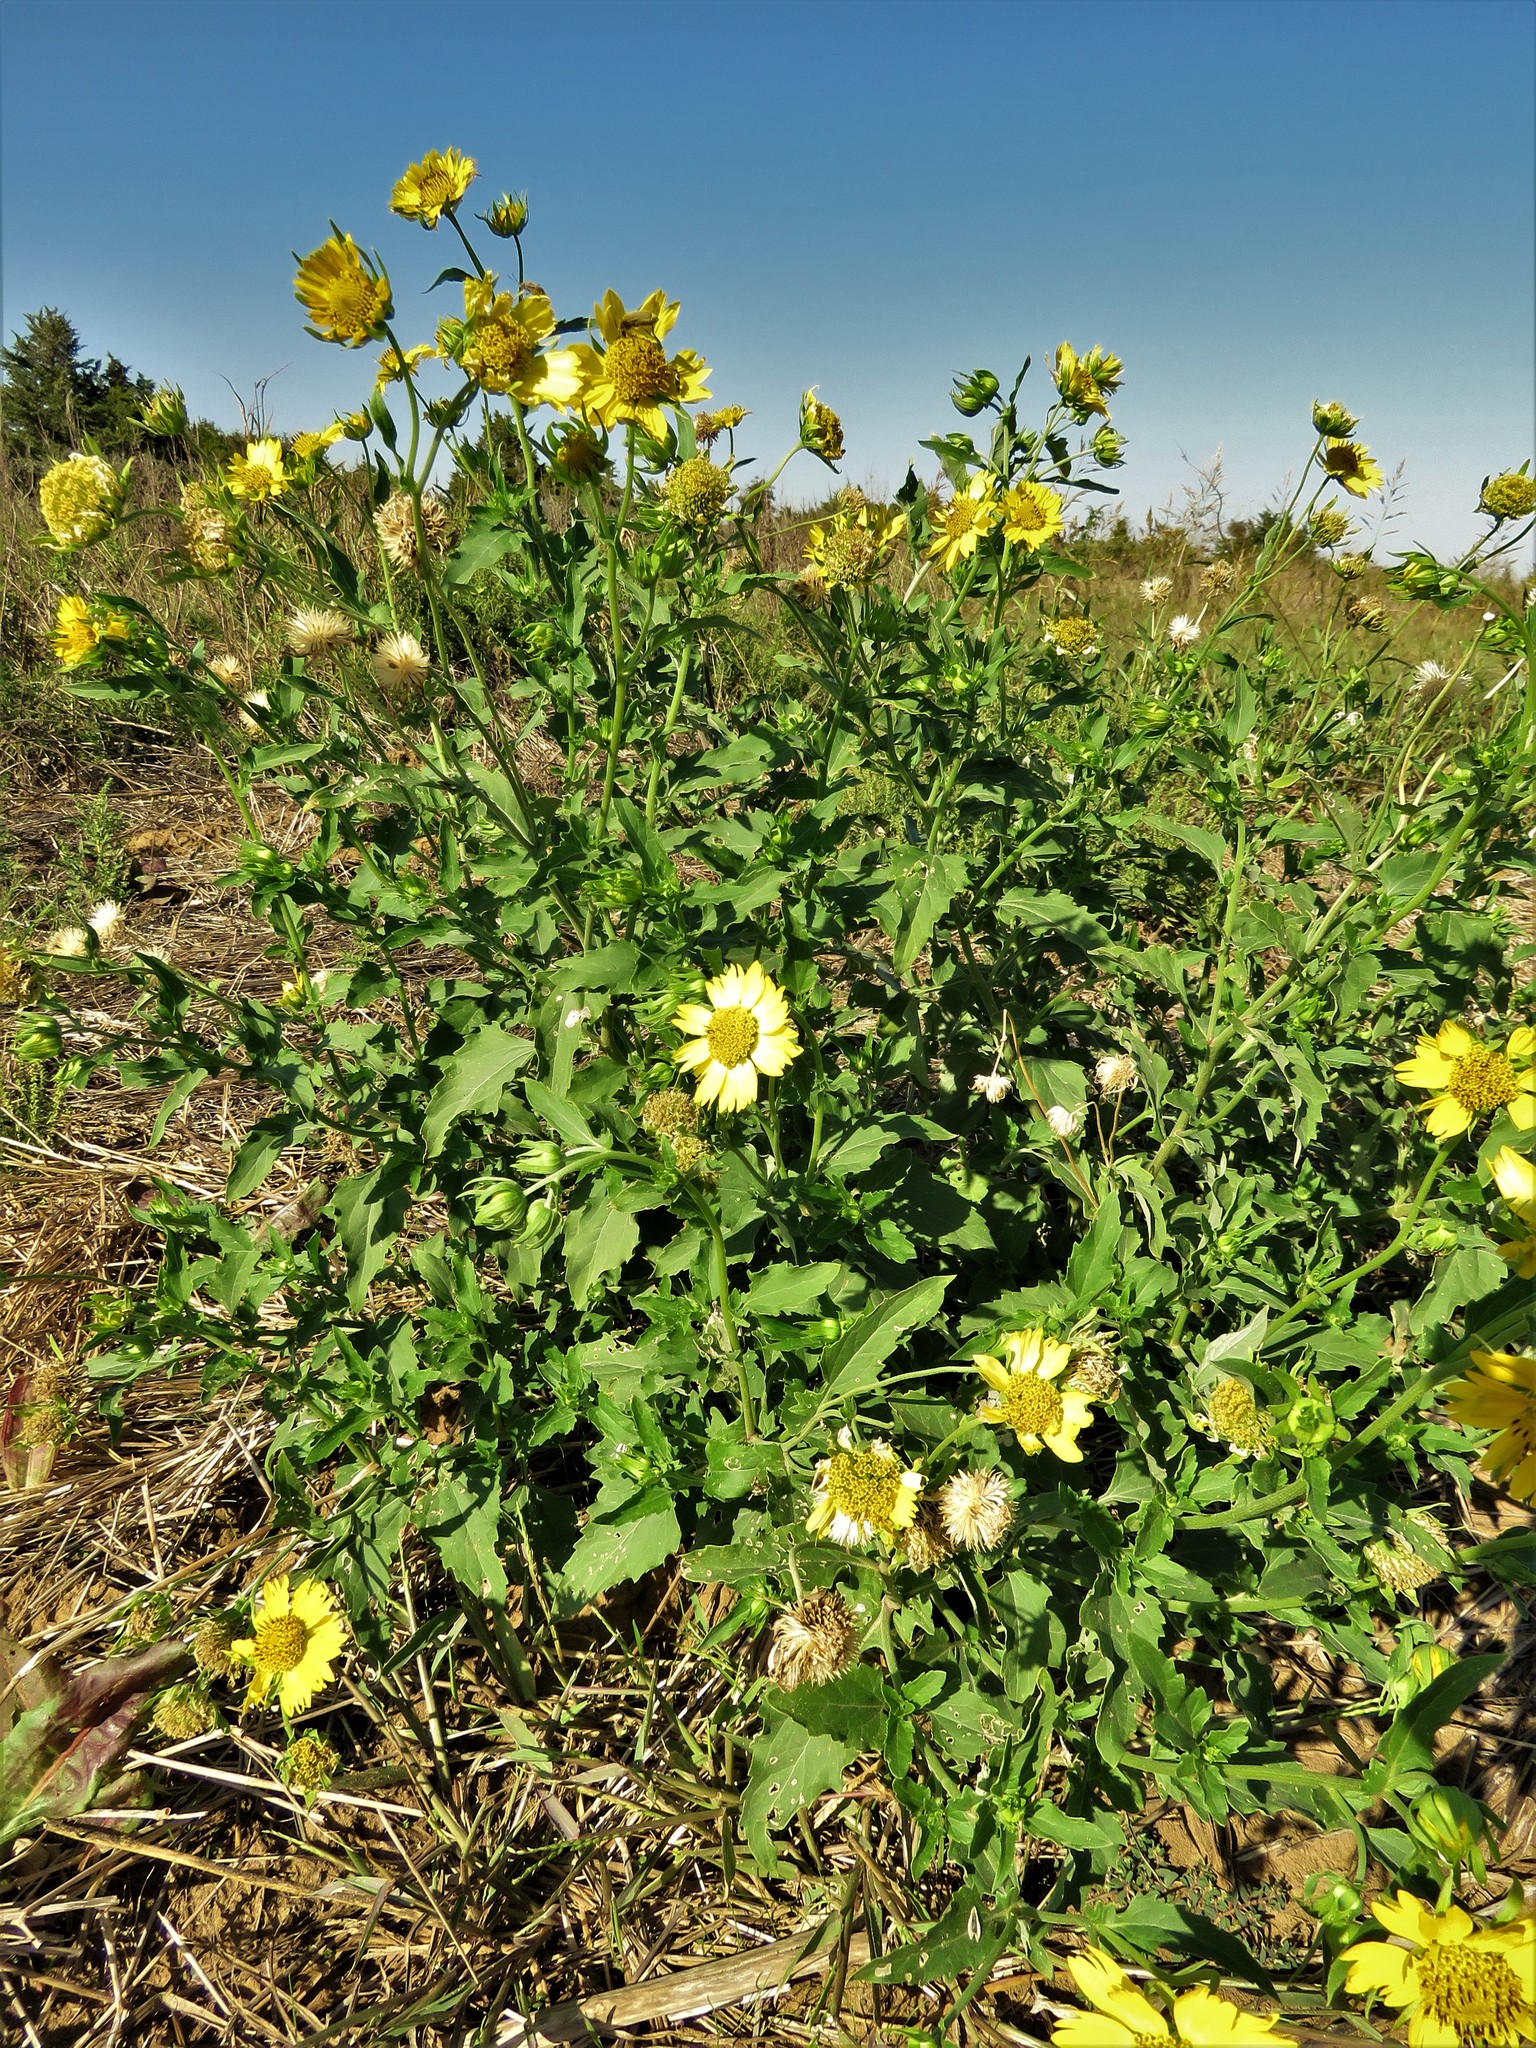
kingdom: Plantae
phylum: Tracheophyta
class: Magnoliopsida
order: Asterales
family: Asteraceae
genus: Verbesina
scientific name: Verbesina encelioides
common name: Golden crownbeard
